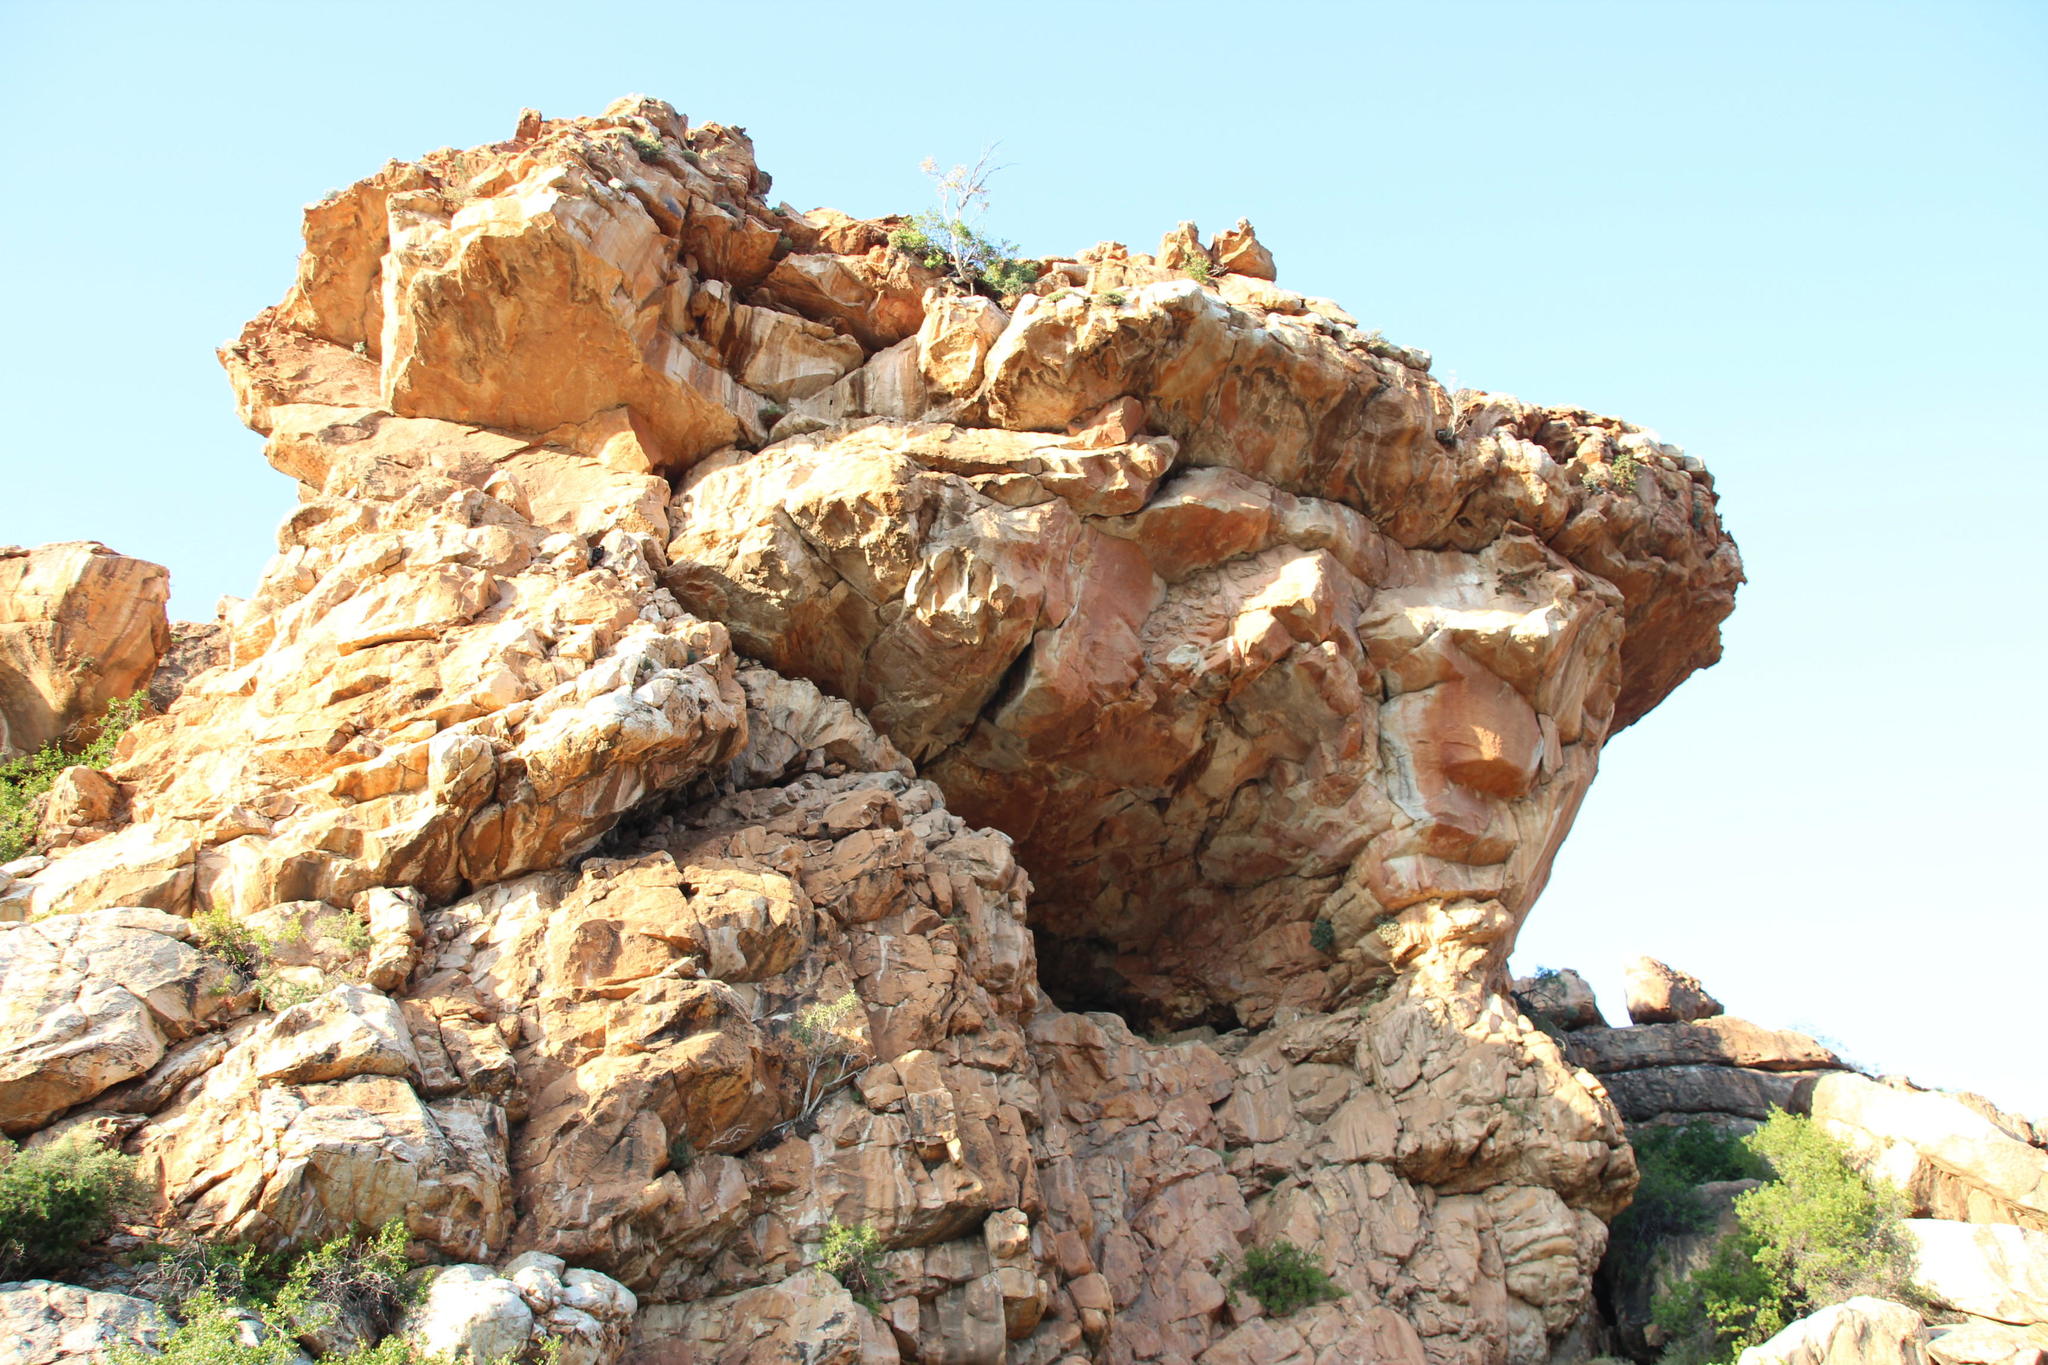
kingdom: Plantae
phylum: Tracheophyta
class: Magnoliopsida
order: Rosales
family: Moraceae
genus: Ficus
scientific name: Ficus cordata
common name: Namaqua rock fig
